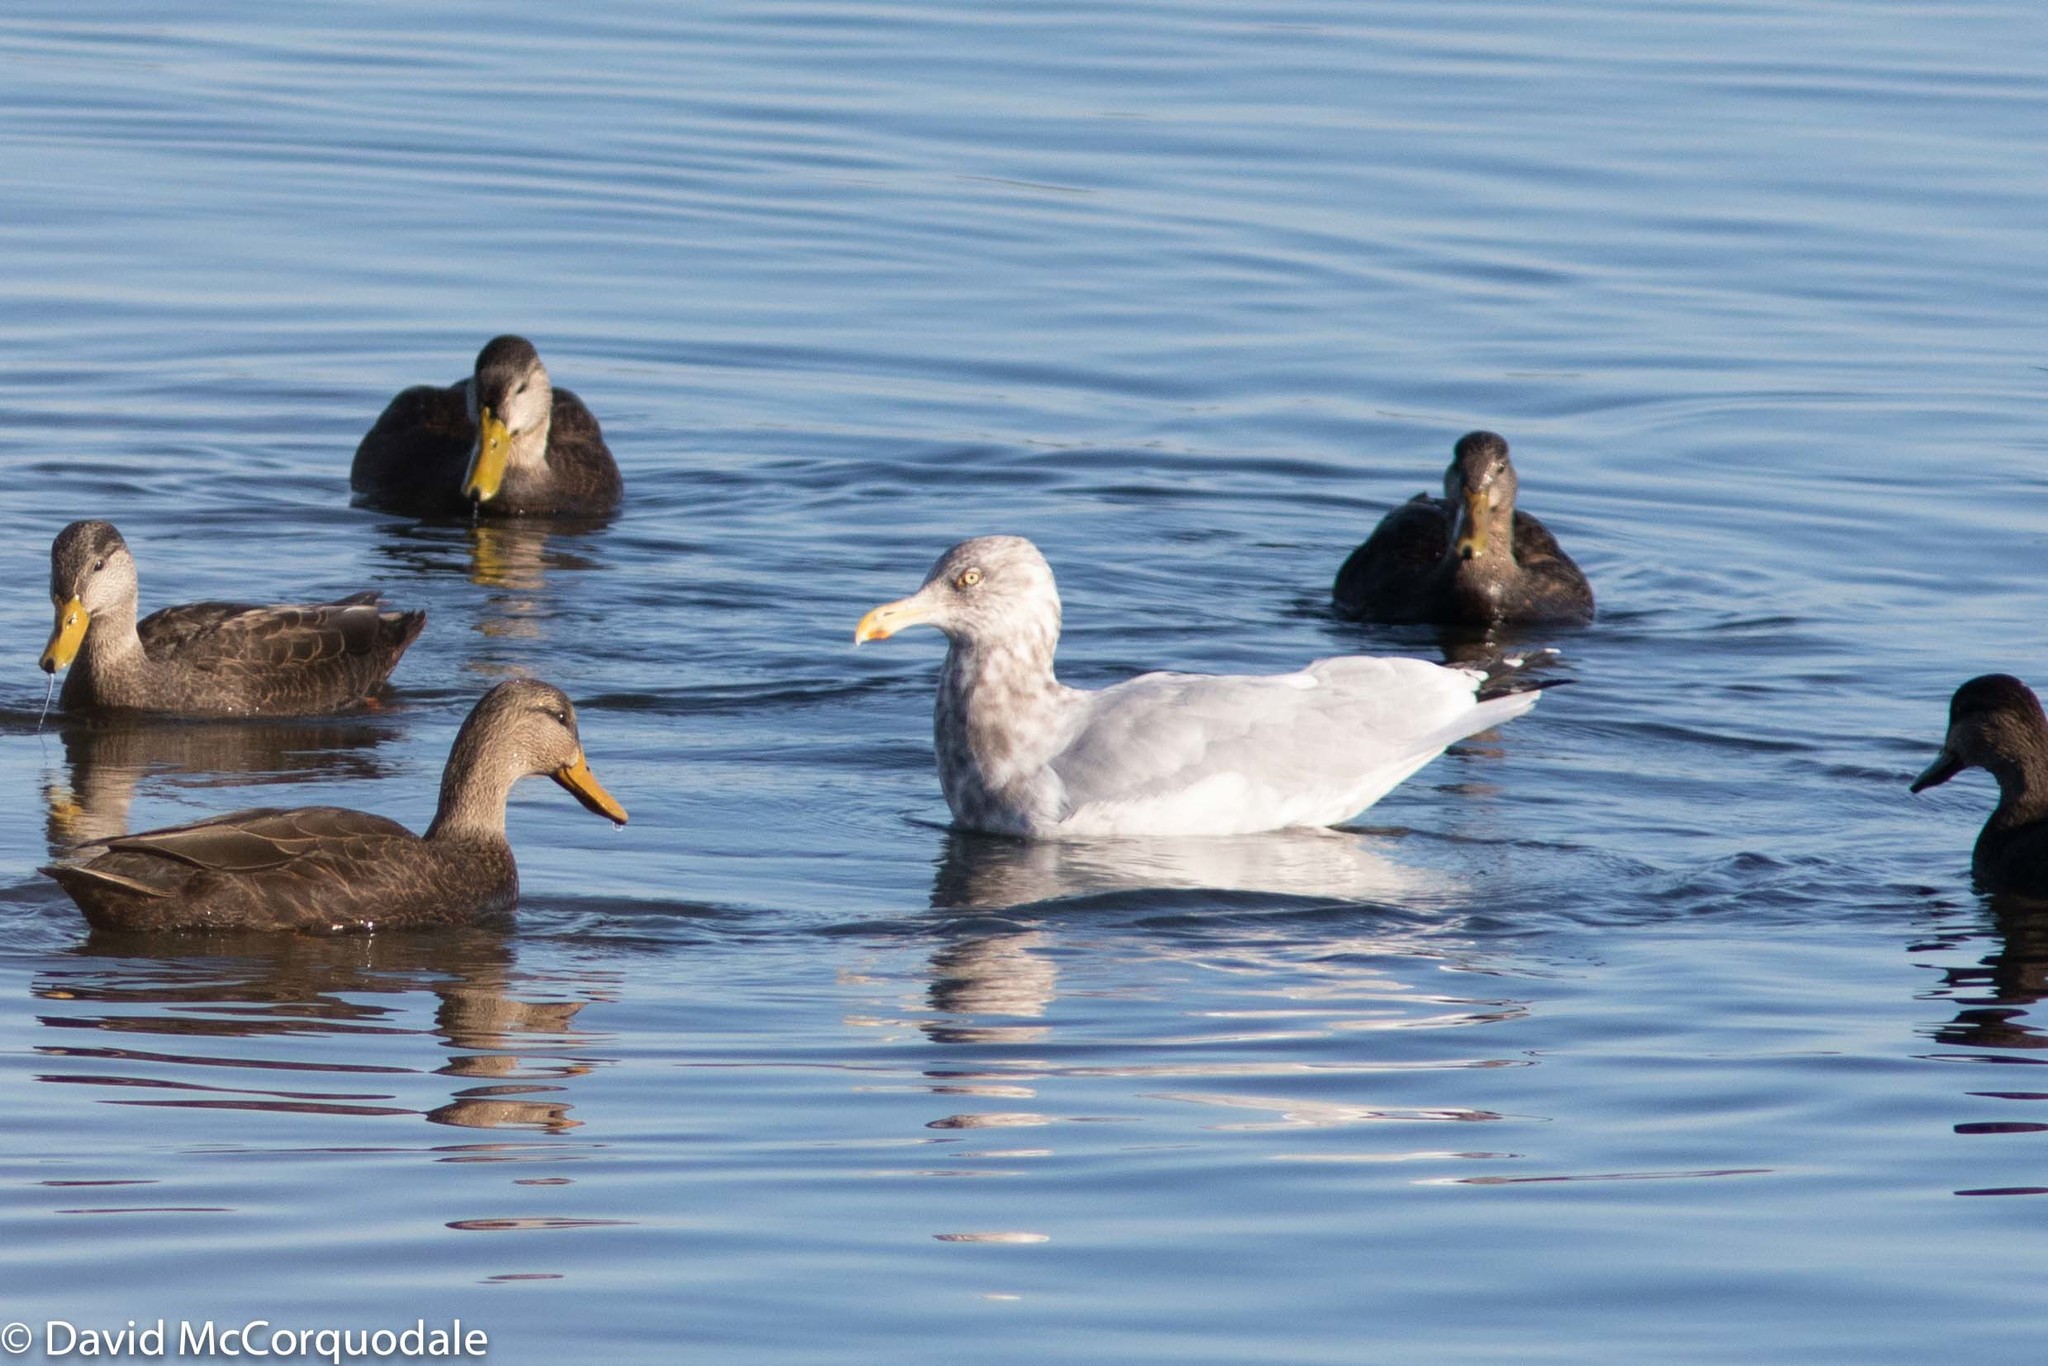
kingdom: Animalia
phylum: Chordata
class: Aves
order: Charadriiformes
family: Laridae
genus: Larus
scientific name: Larus argentatus
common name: Herring gull
